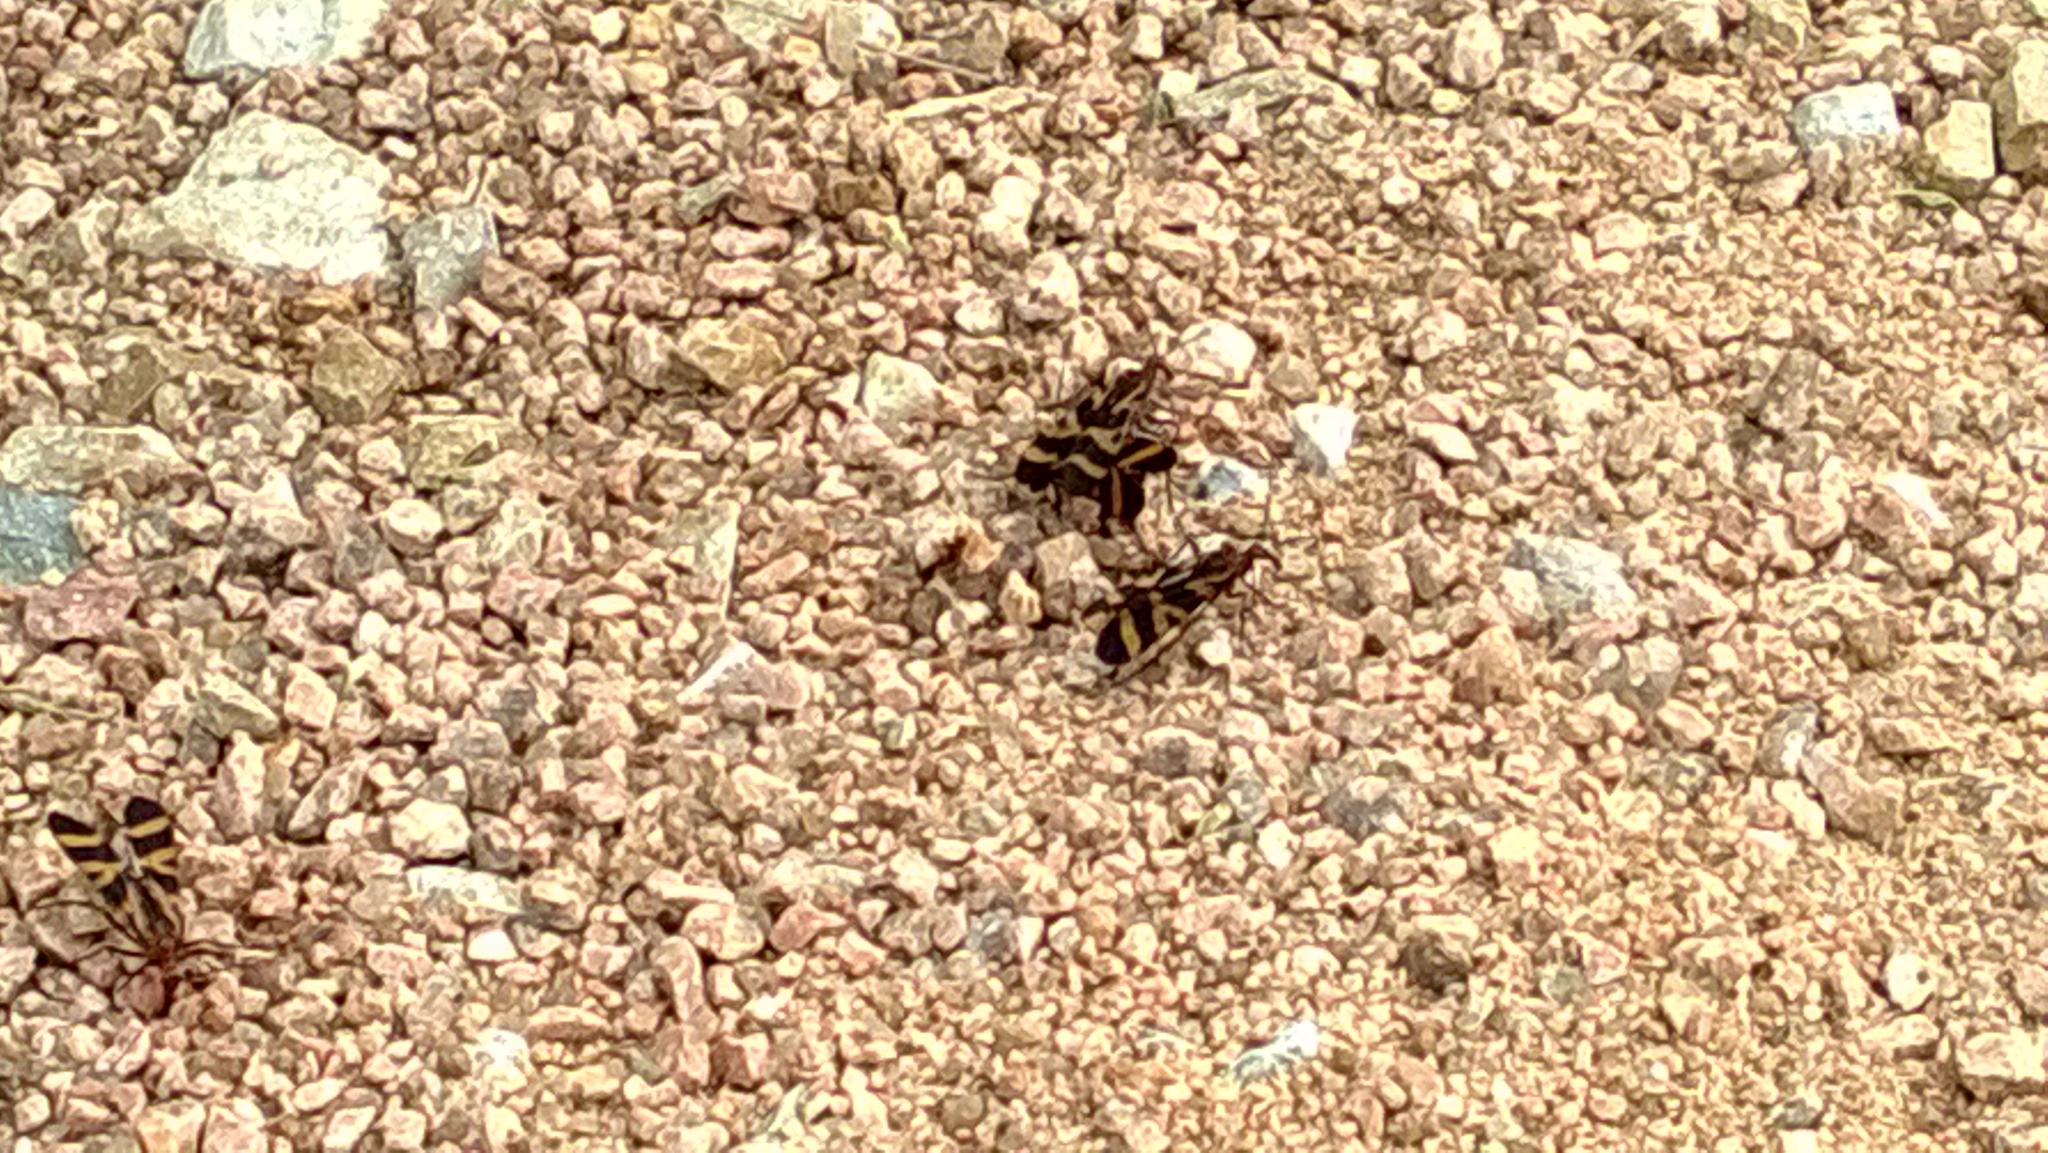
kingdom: Animalia
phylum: Arthropoda
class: Insecta
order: Mecoptera
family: Panorpidae
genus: Panorpa
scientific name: Panorpa nuptialis
